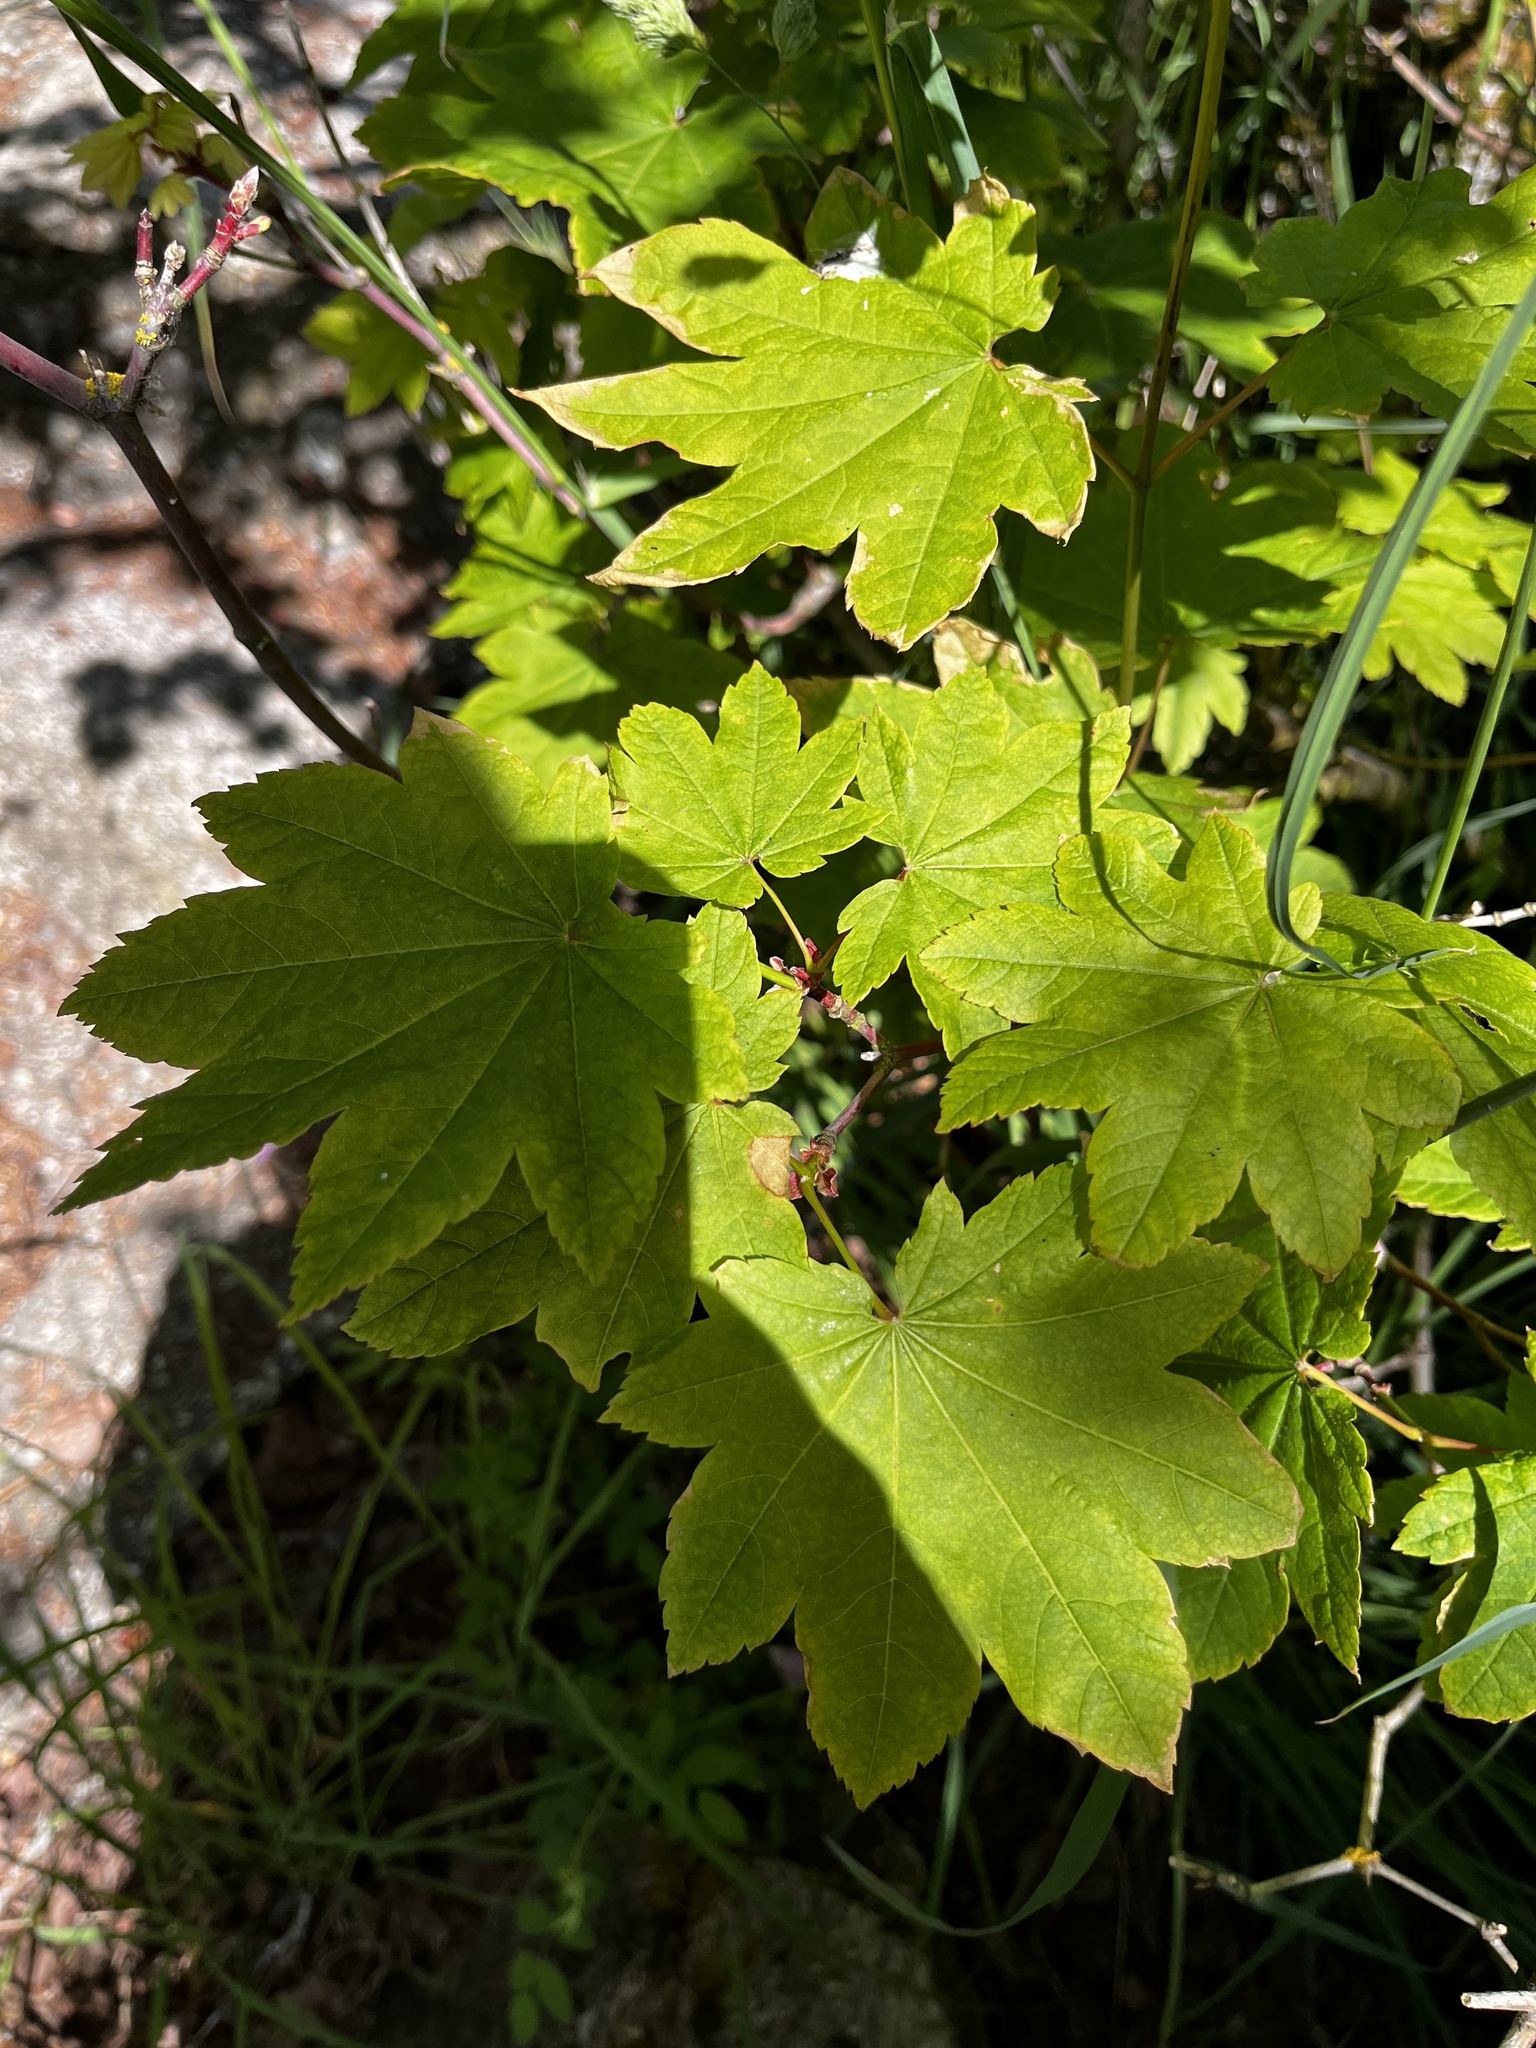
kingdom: Plantae
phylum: Tracheophyta
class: Magnoliopsida
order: Sapindales
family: Sapindaceae
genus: Acer
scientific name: Acer circinatum
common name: Vine maple
